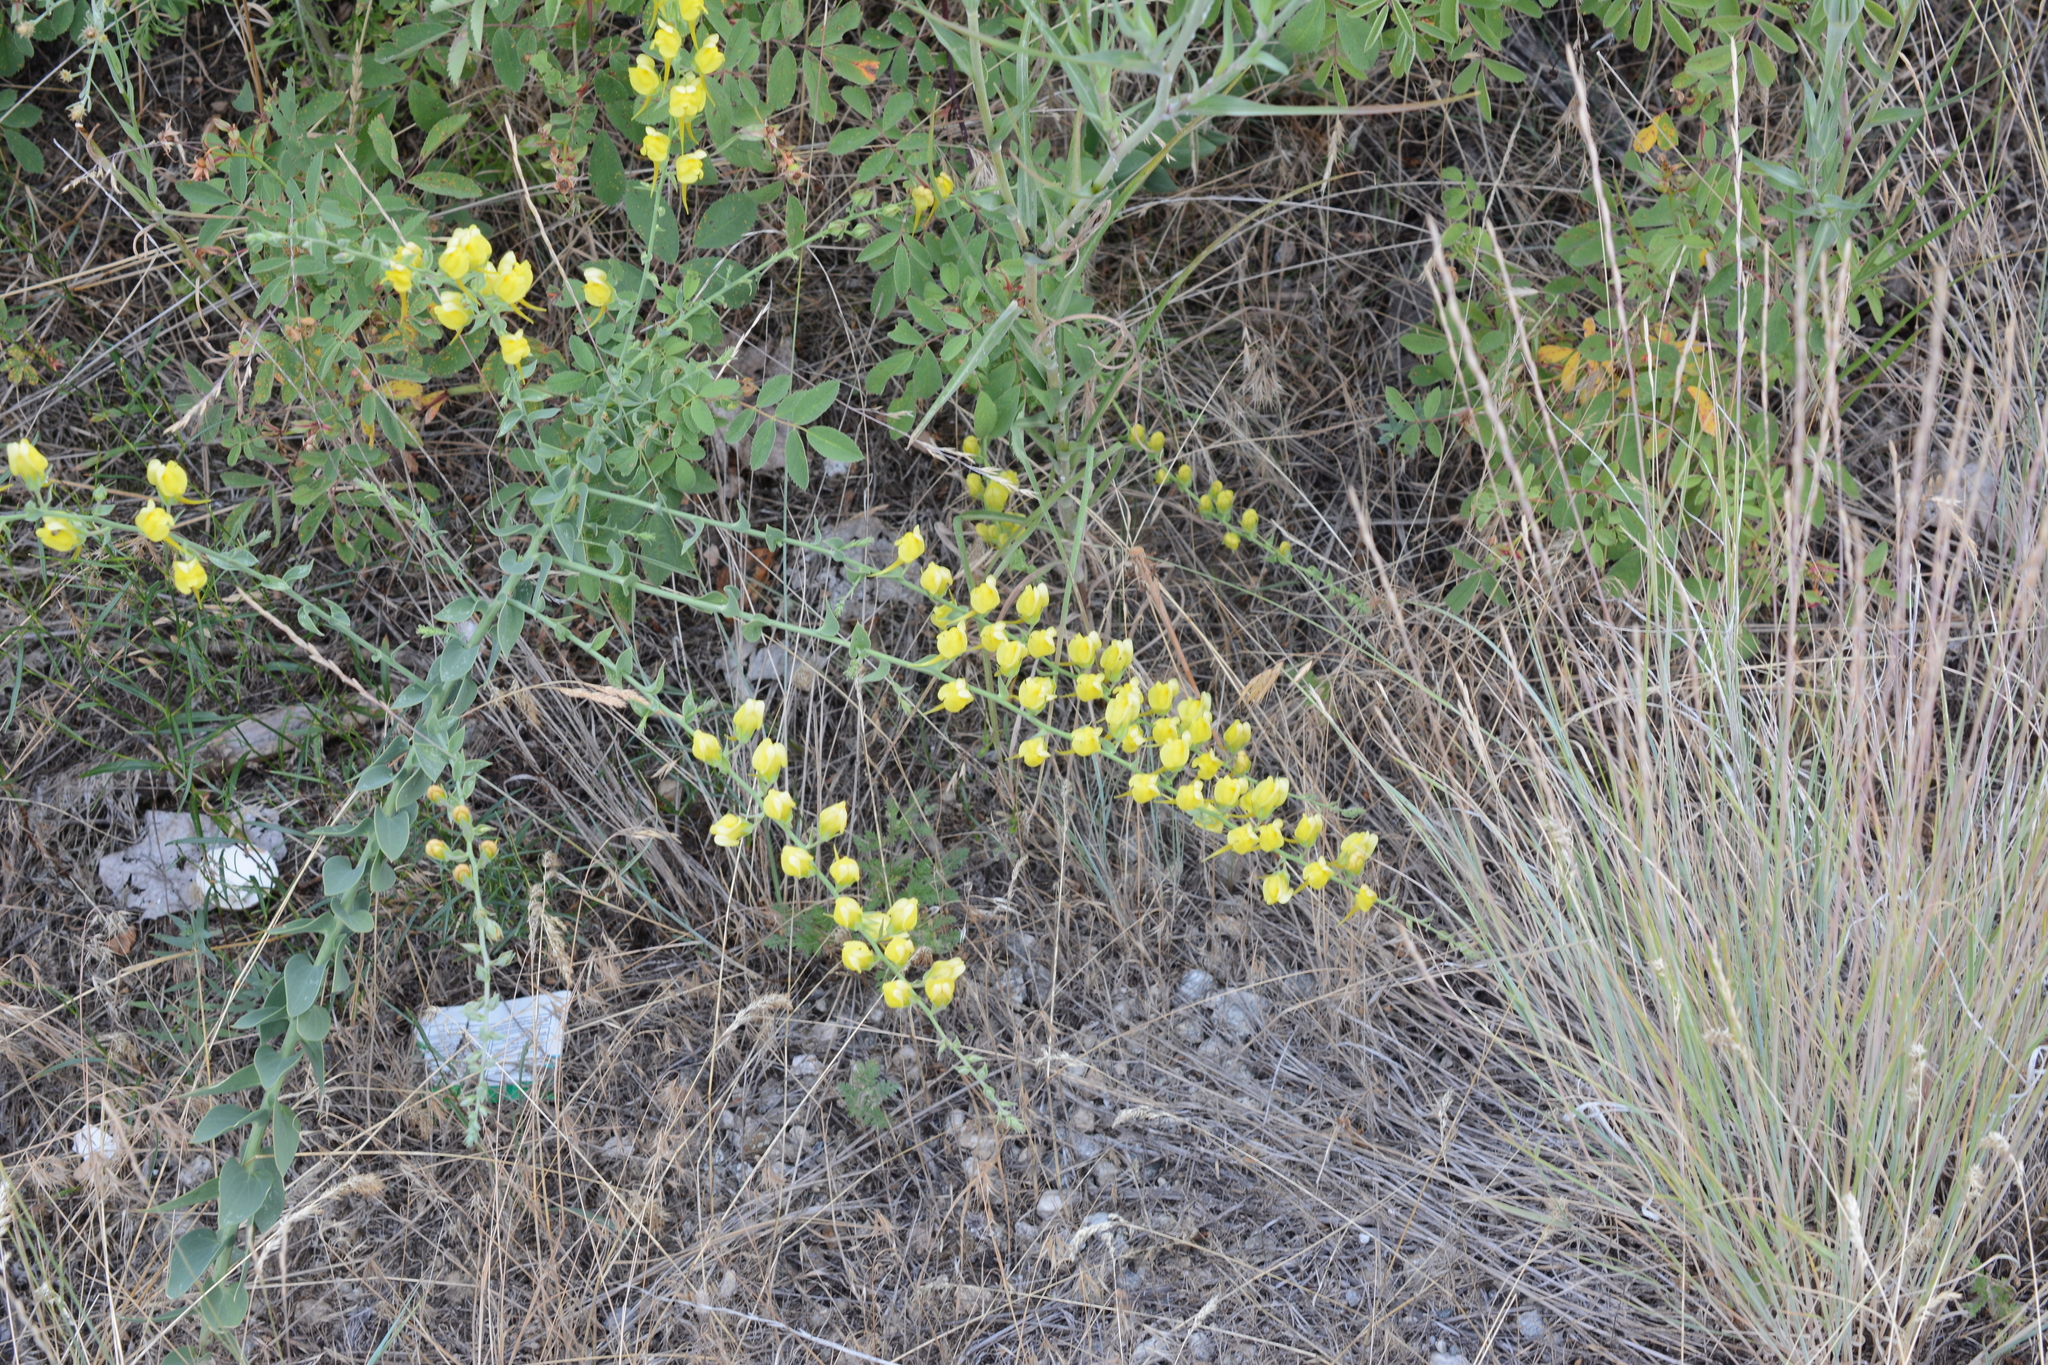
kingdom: Plantae
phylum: Tracheophyta
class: Magnoliopsida
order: Lamiales
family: Plantaginaceae
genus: Linaria
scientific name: Linaria dalmatica
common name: Dalmatian toadflax
